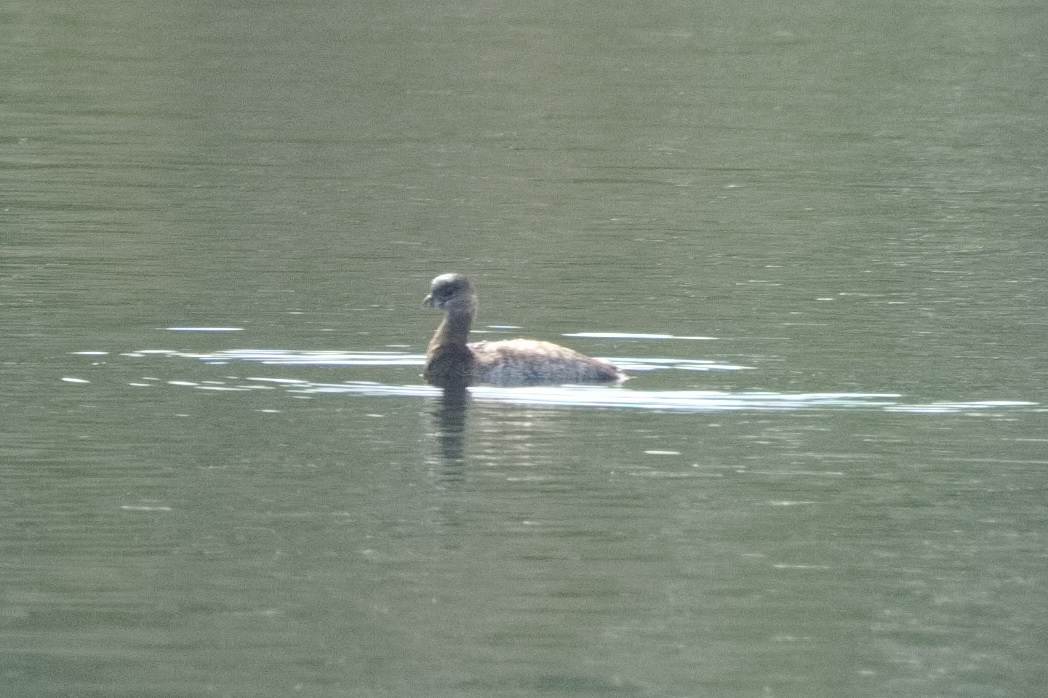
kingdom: Animalia
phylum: Chordata
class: Aves
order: Podicipediformes
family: Podicipedidae
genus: Podilymbus
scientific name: Podilymbus podiceps
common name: Pied-billed grebe
